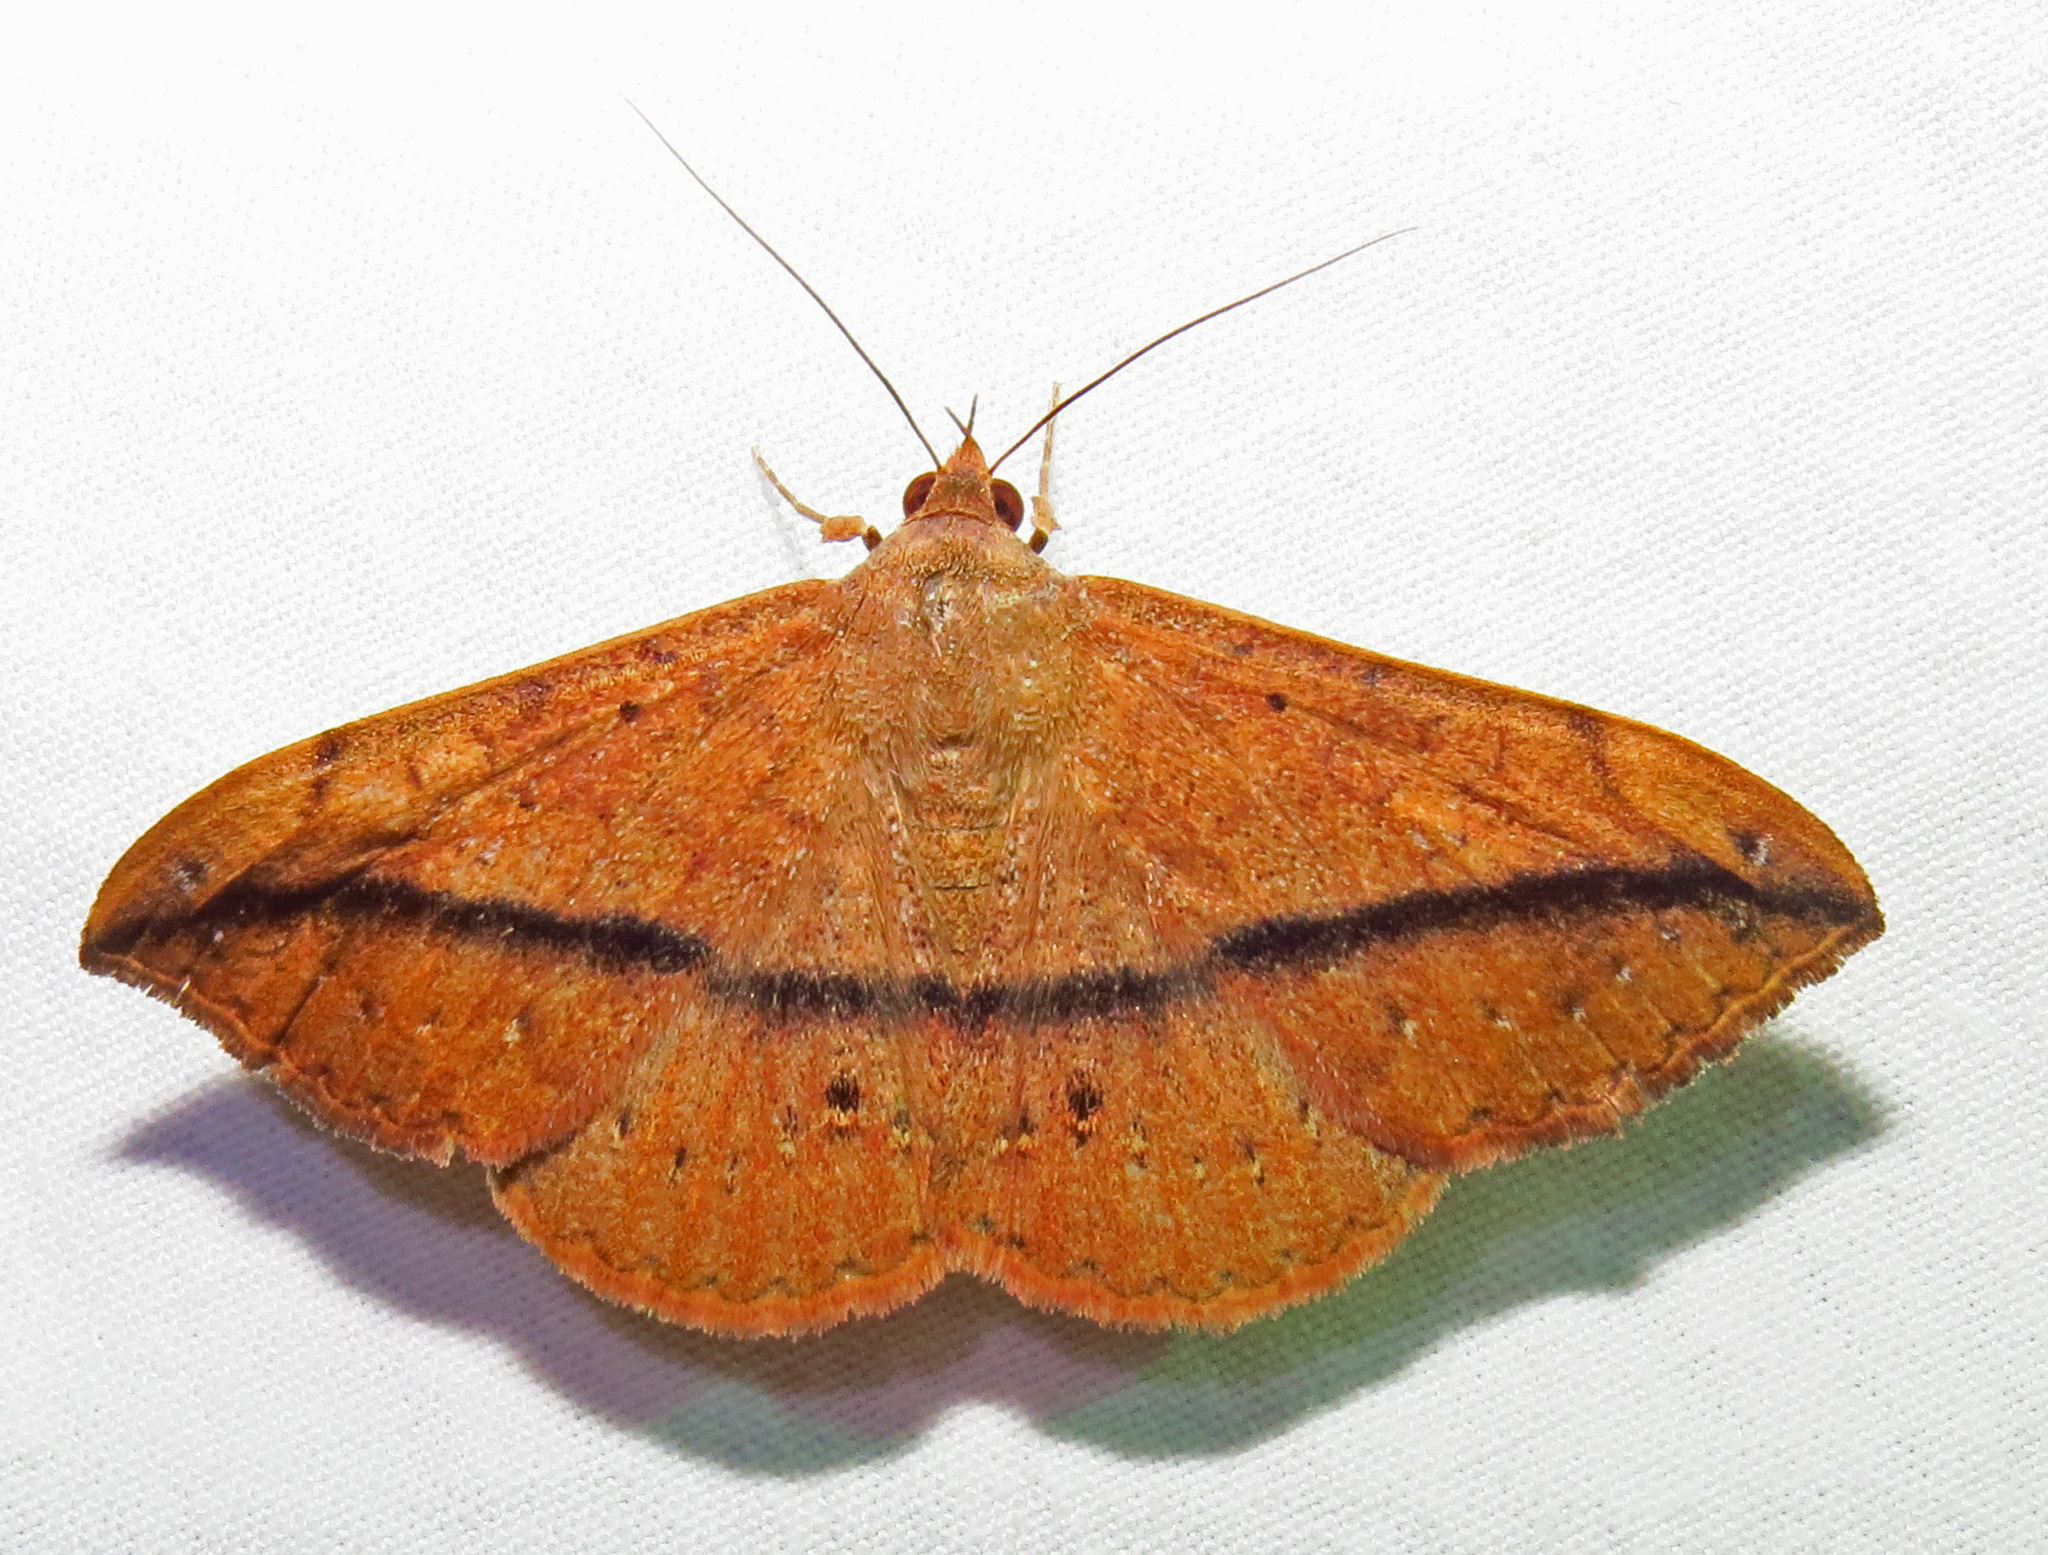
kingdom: Animalia
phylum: Arthropoda
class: Insecta
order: Lepidoptera
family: Erebidae
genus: Anticarsia
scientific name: Anticarsia gemmatalis
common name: Cutworm moth
